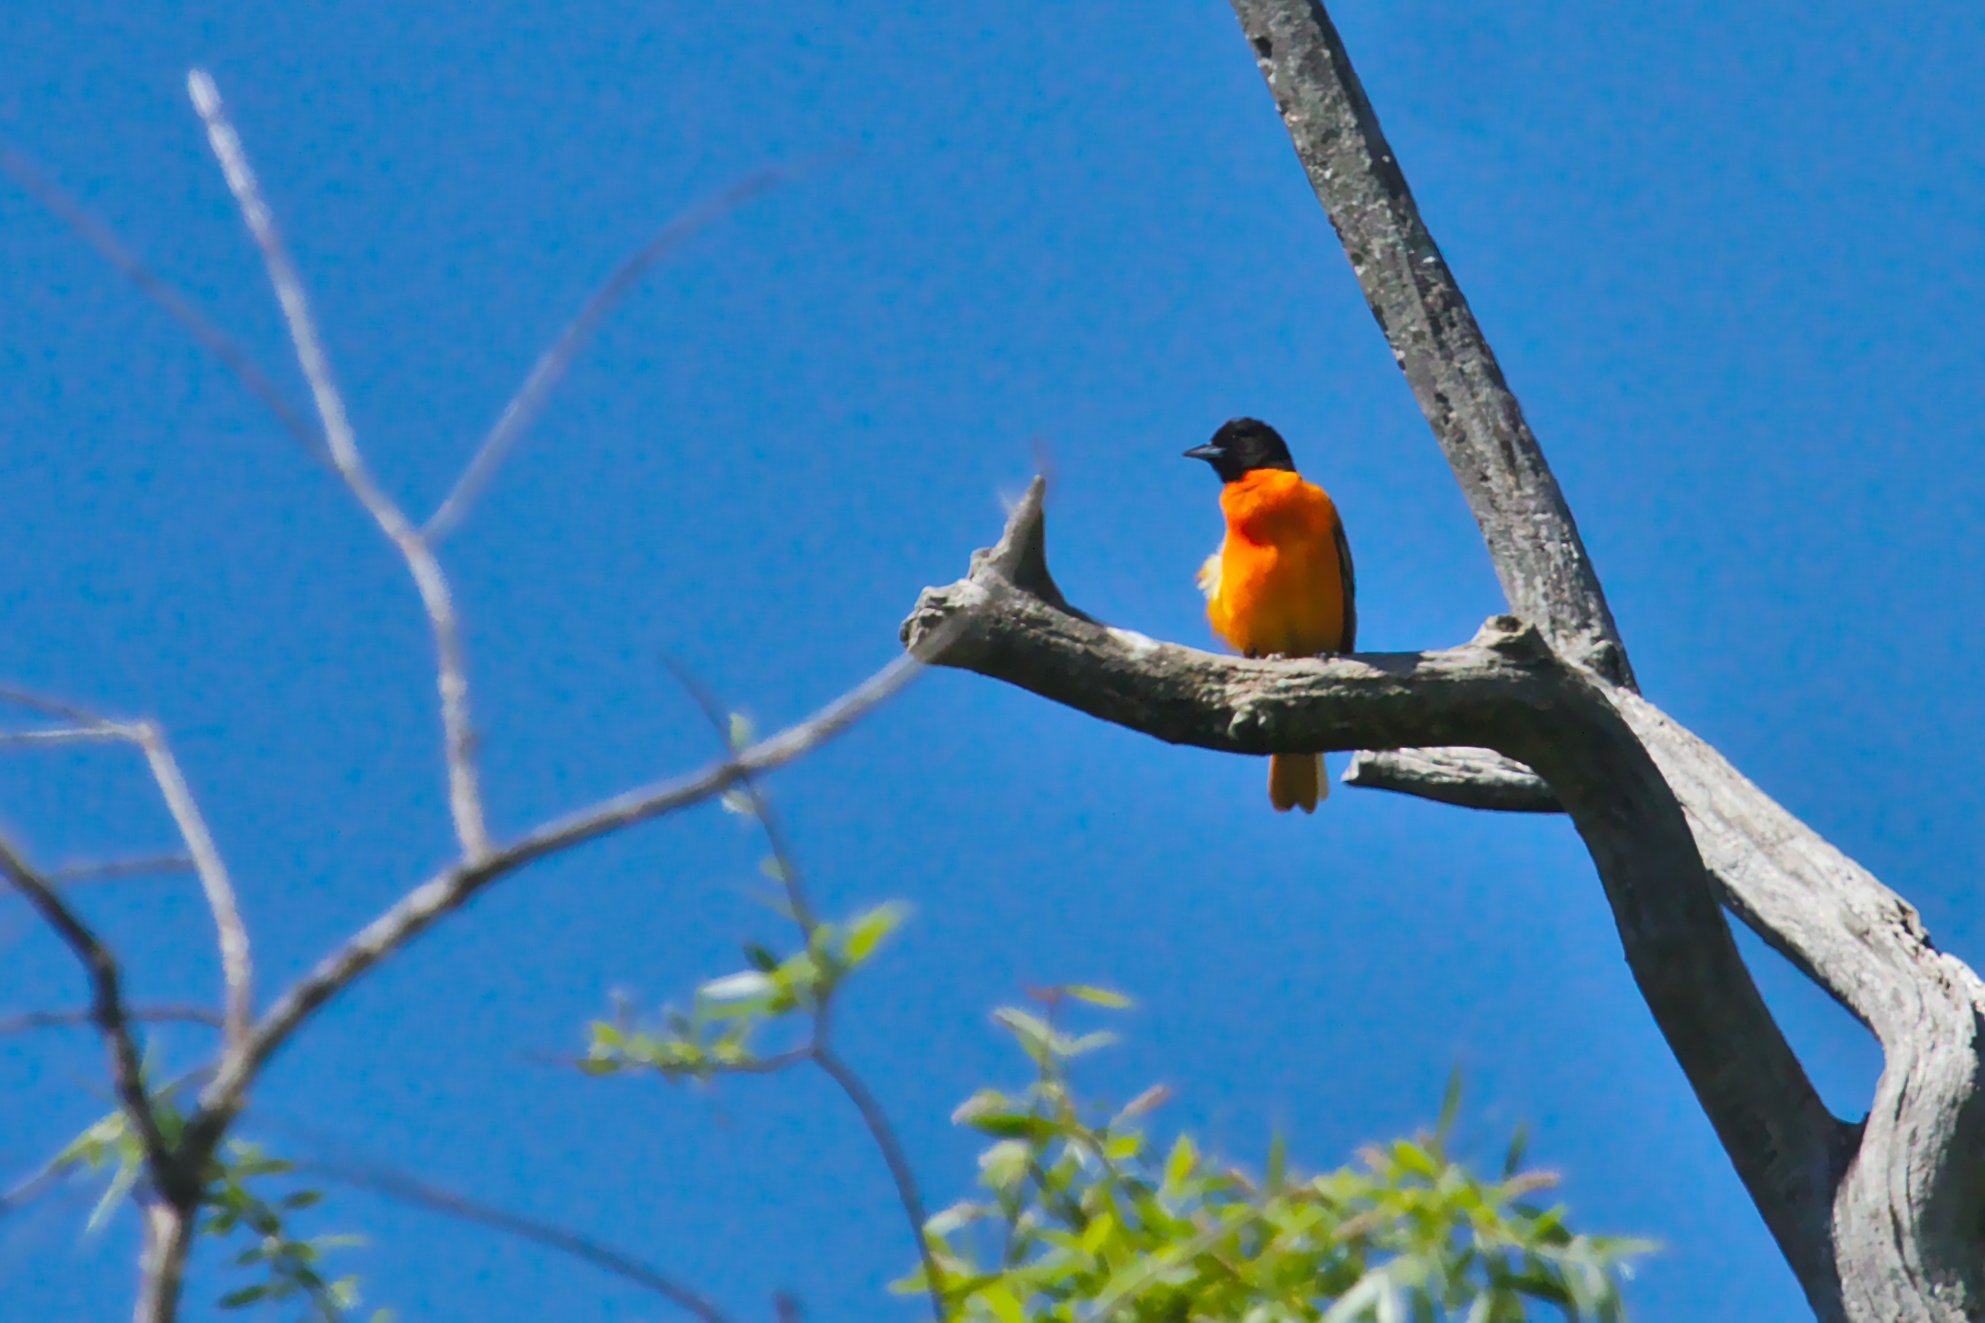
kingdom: Animalia
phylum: Chordata
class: Aves
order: Passeriformes
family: Icteridae
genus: Icterus
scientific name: Icterus galbula
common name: Baltimore oriole
